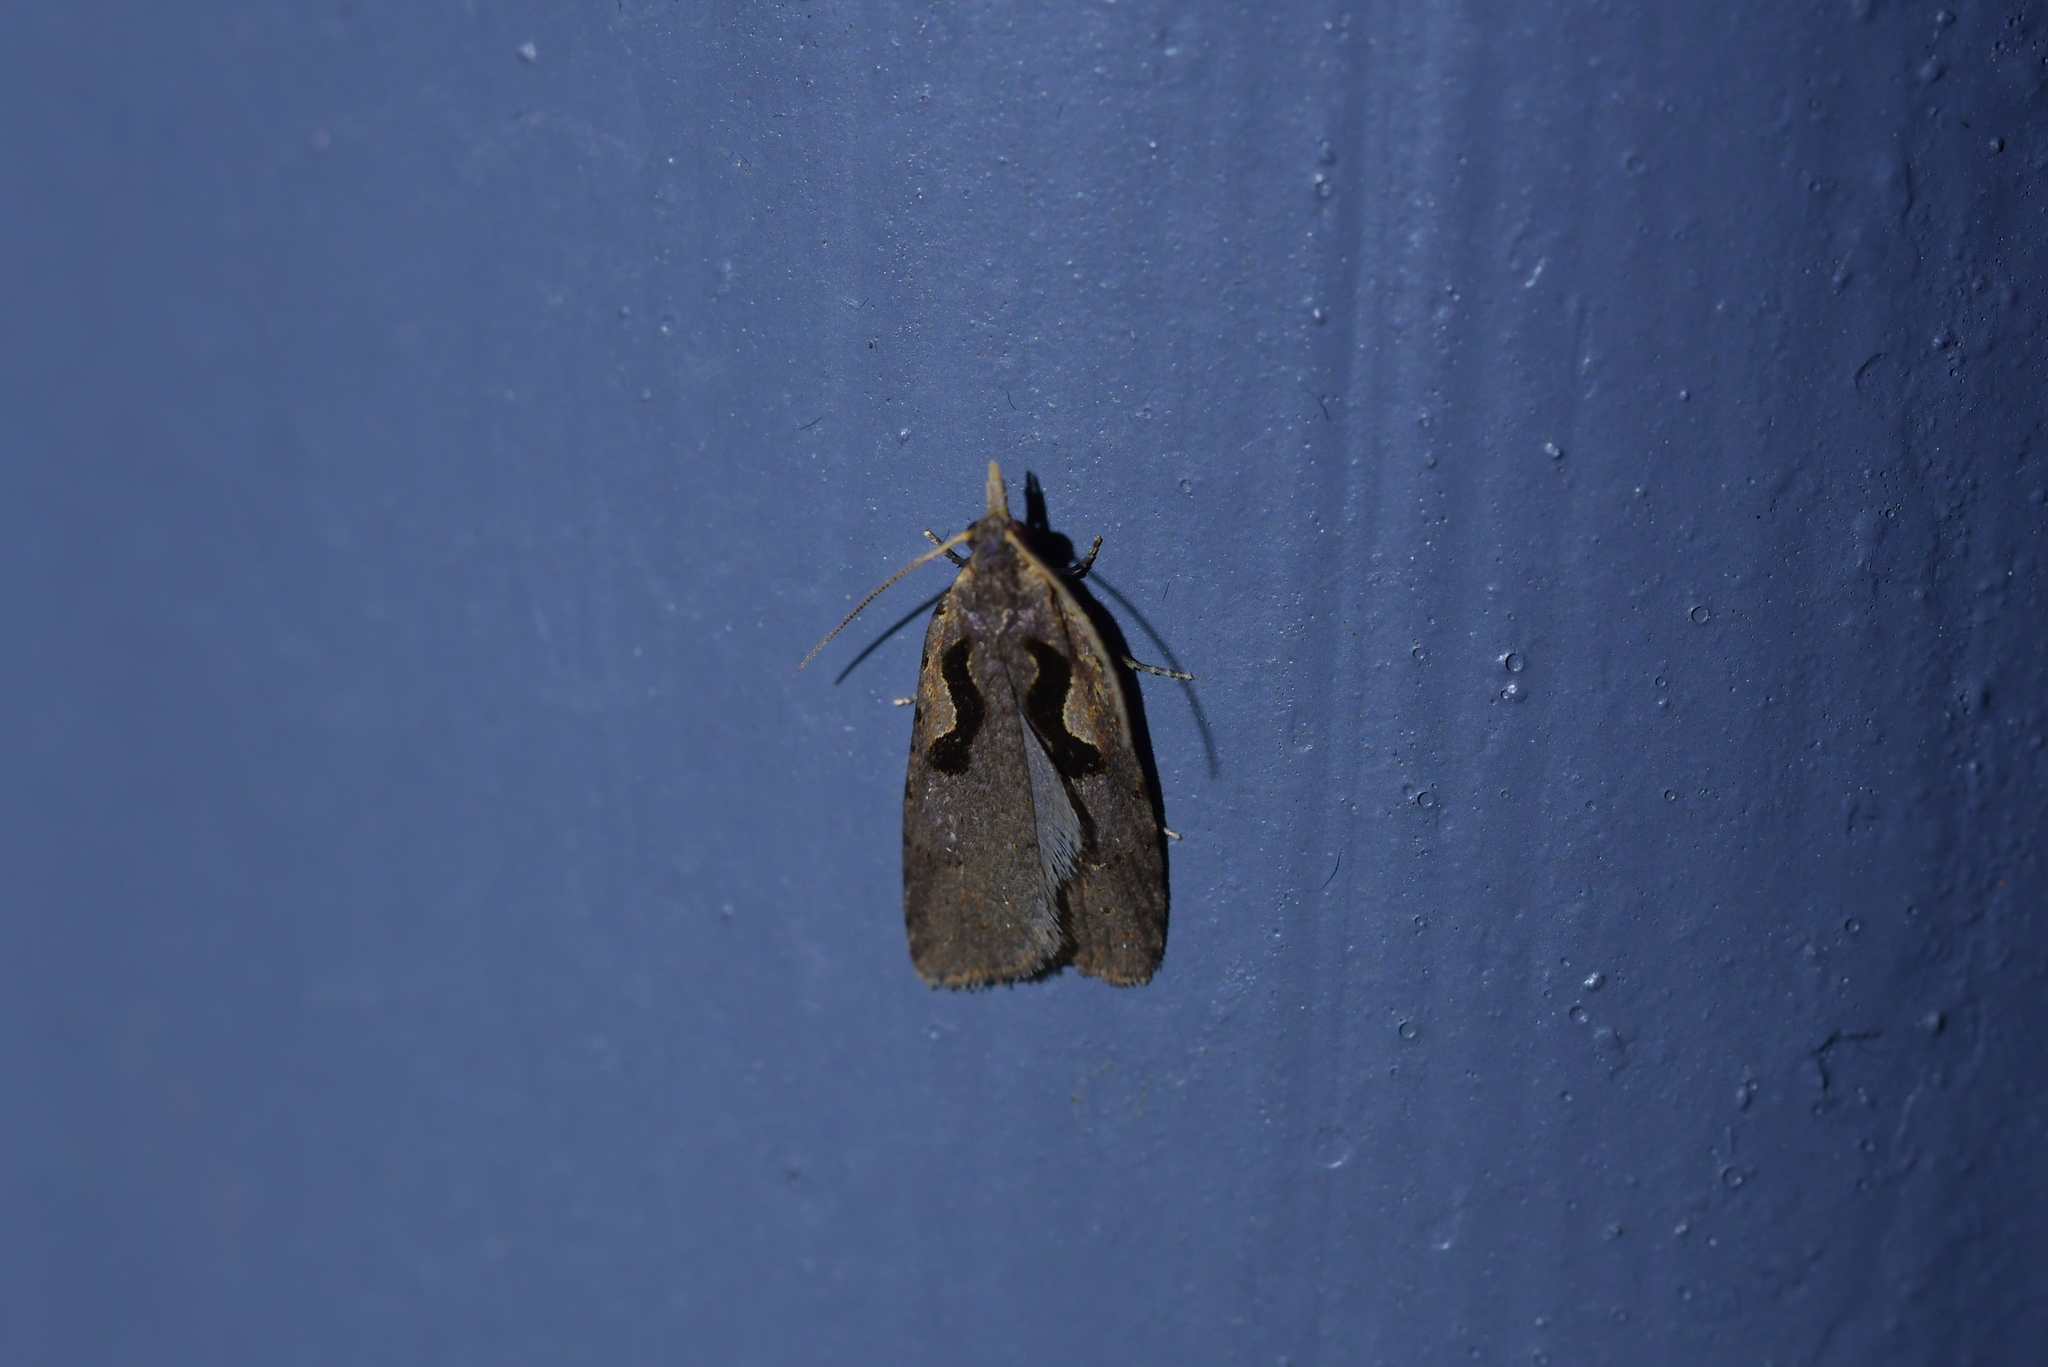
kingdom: Animalia
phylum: Arthropoda
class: Insecta
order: Lepidoptera
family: Tortricidae
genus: Cnephasia
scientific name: Cnephasia jactatana
